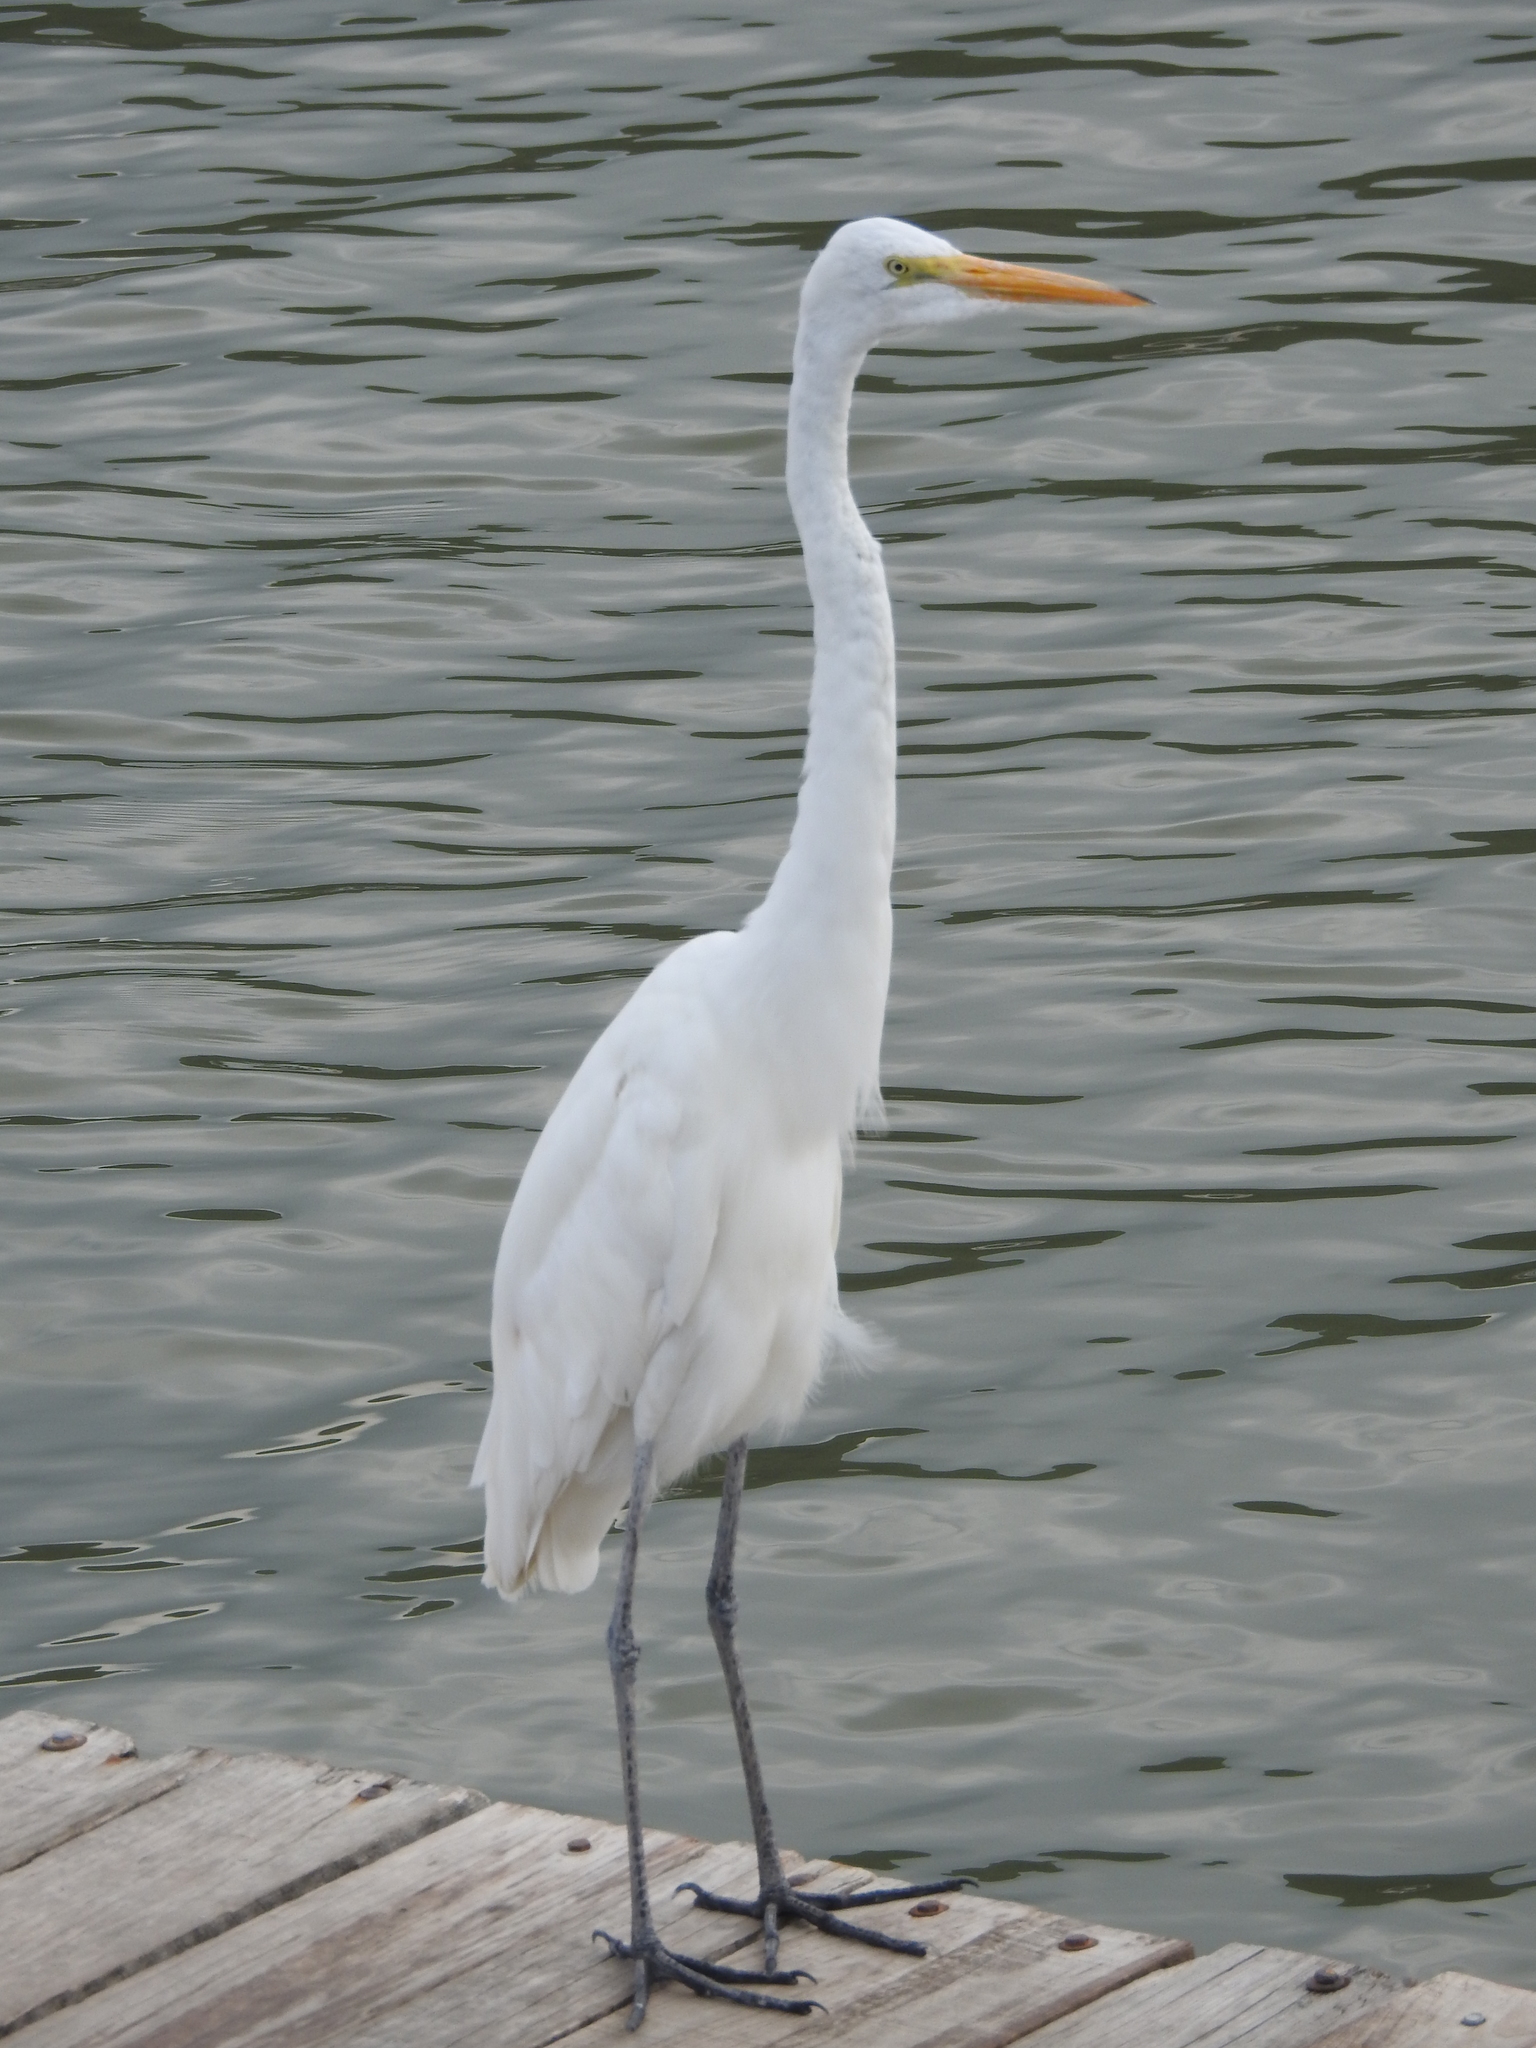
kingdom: Animalia
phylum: Chordata
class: Aves
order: Pelecaniformes
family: Ardeidae
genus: Ardea
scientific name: Ardea alba
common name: Great egret
